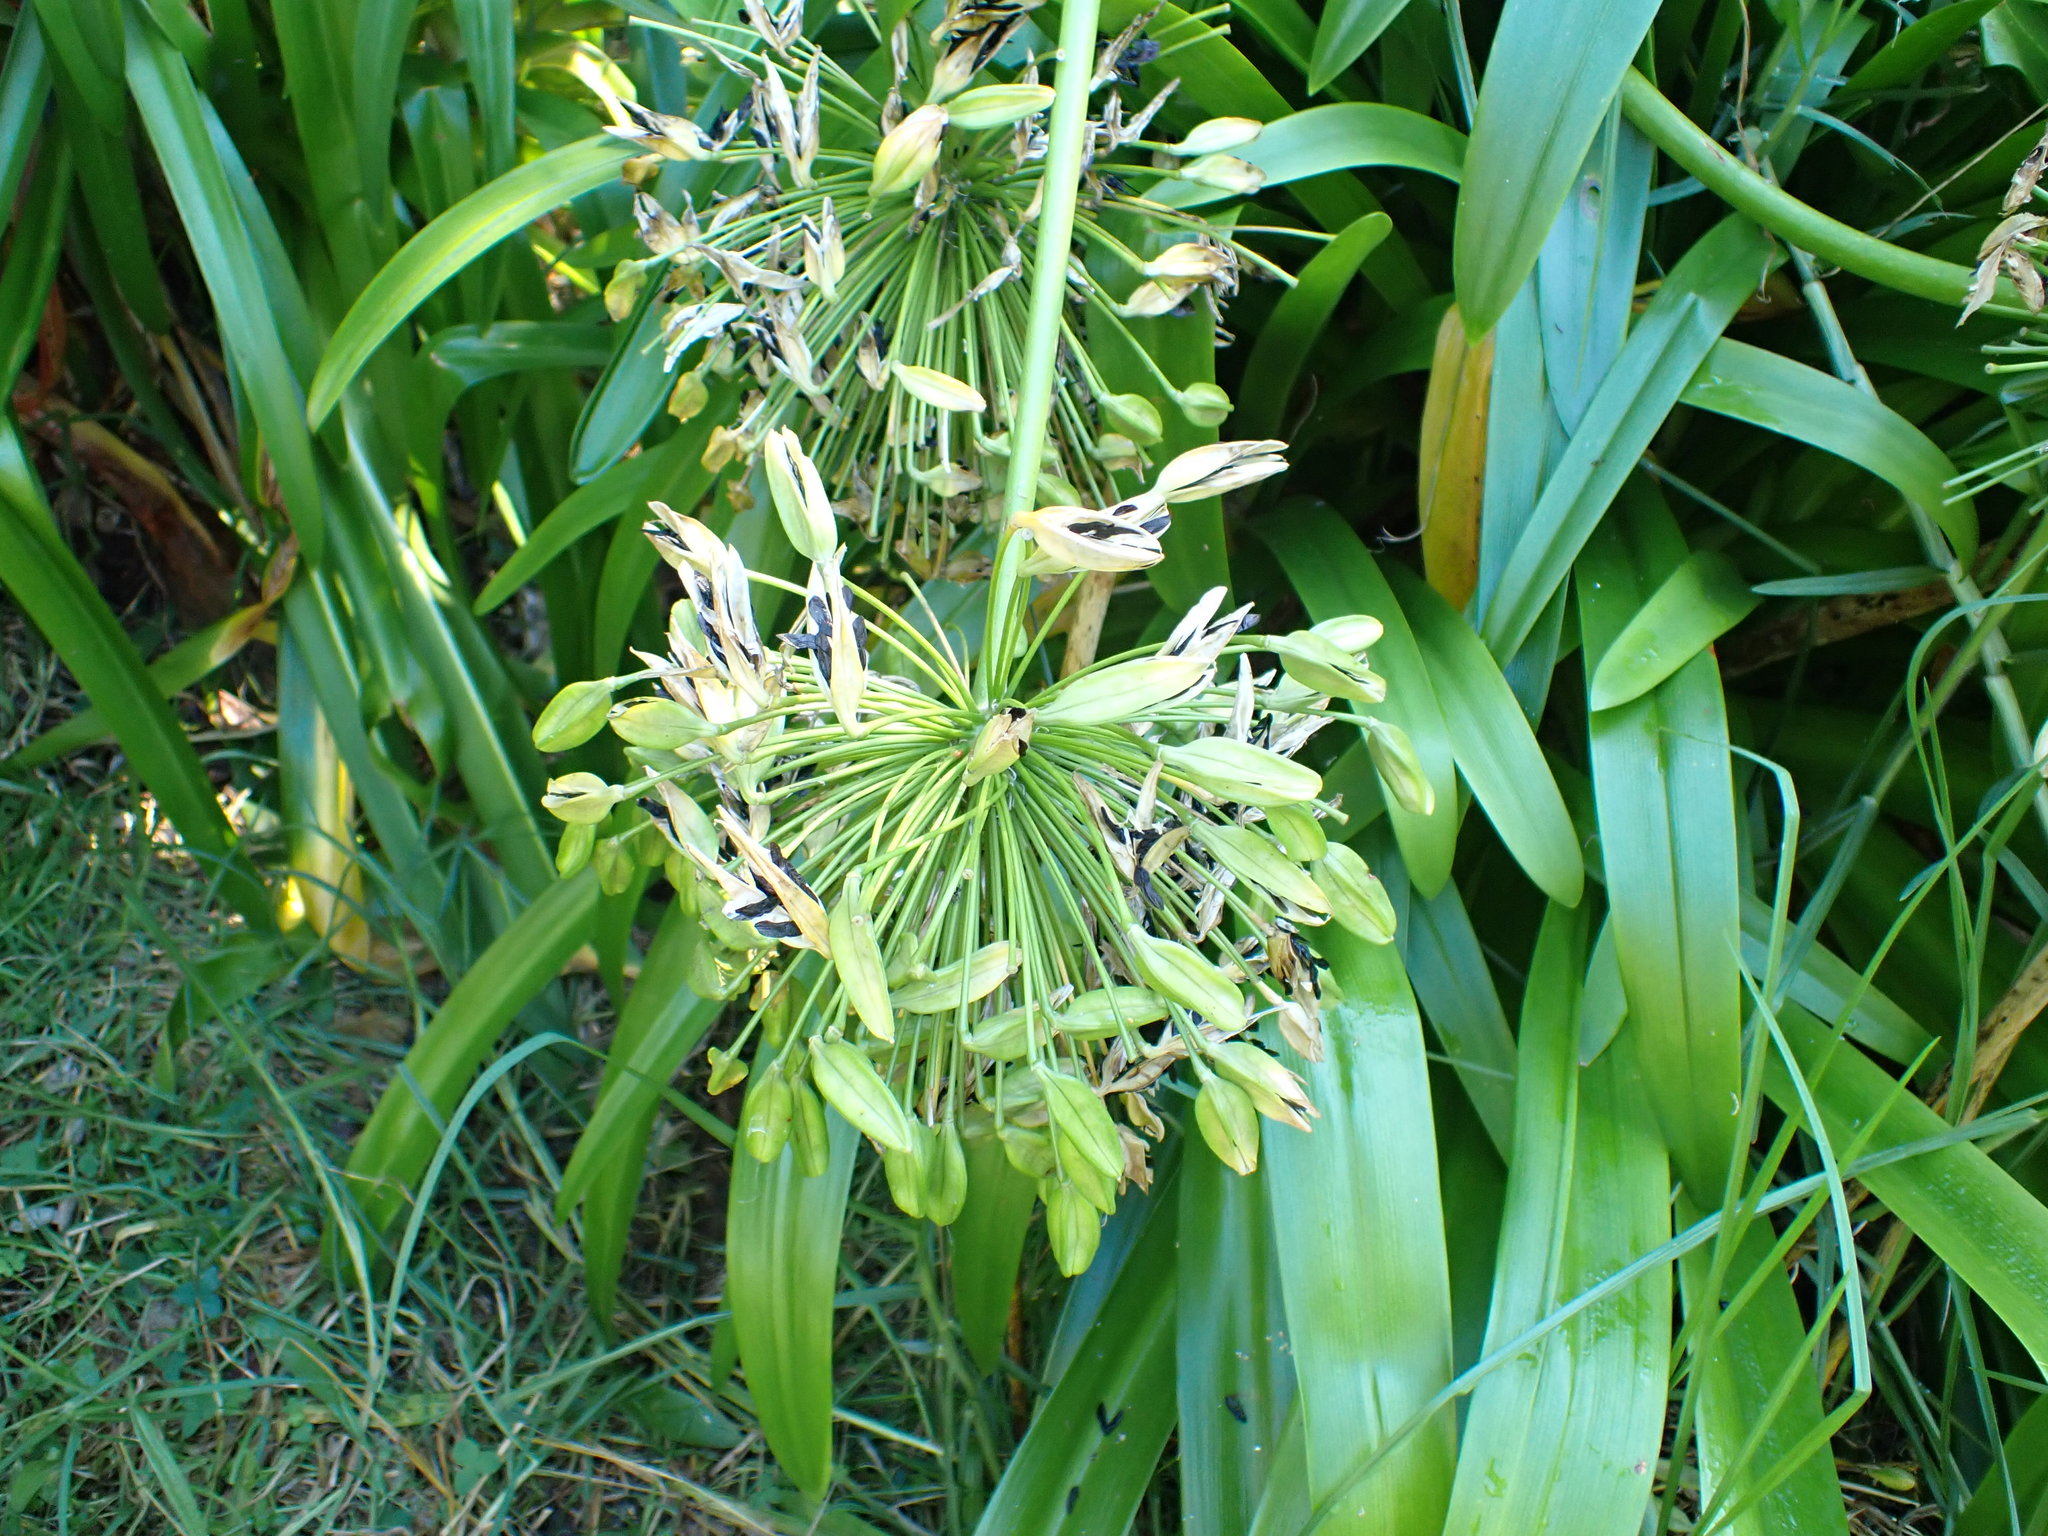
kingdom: Plantae
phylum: Tracheophyta
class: Liliopsida
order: Asparagales
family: Amaryllidaceae
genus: Agapanthus
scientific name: Agapanthus praecox
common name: African-lily
